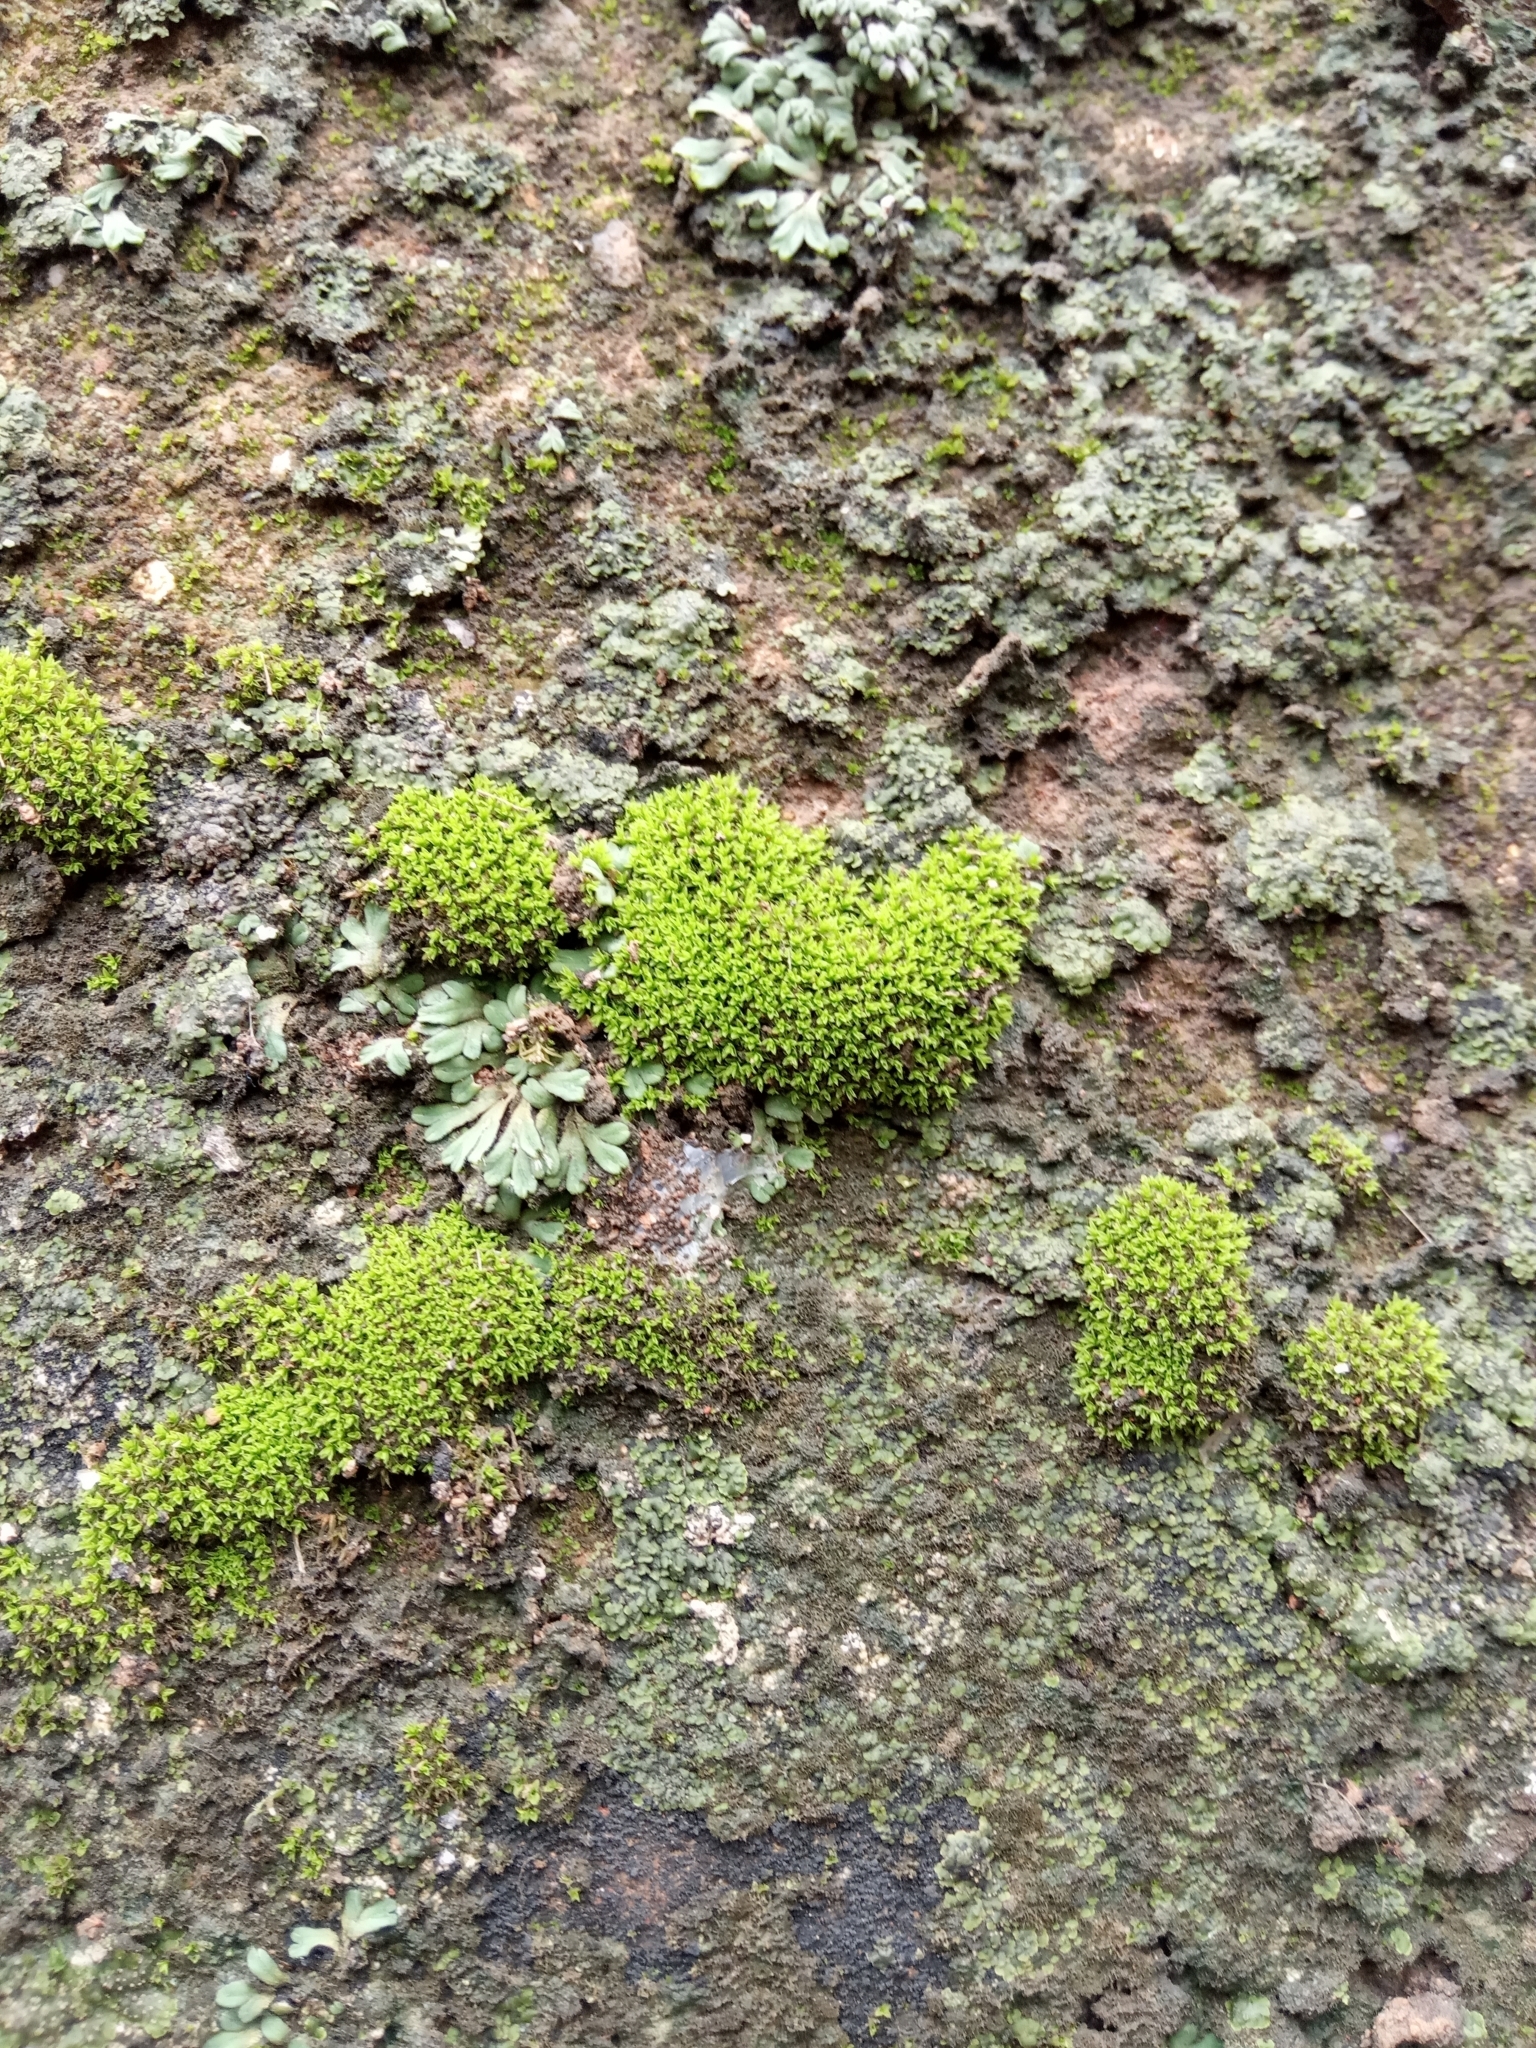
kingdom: Plantae
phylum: Bryophyta
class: Bryopsida
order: Pottiales
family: Pottiaceae
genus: Streblotrichum
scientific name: Streblotrichum convolutum
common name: Lesser bird's-claw beard-moss
